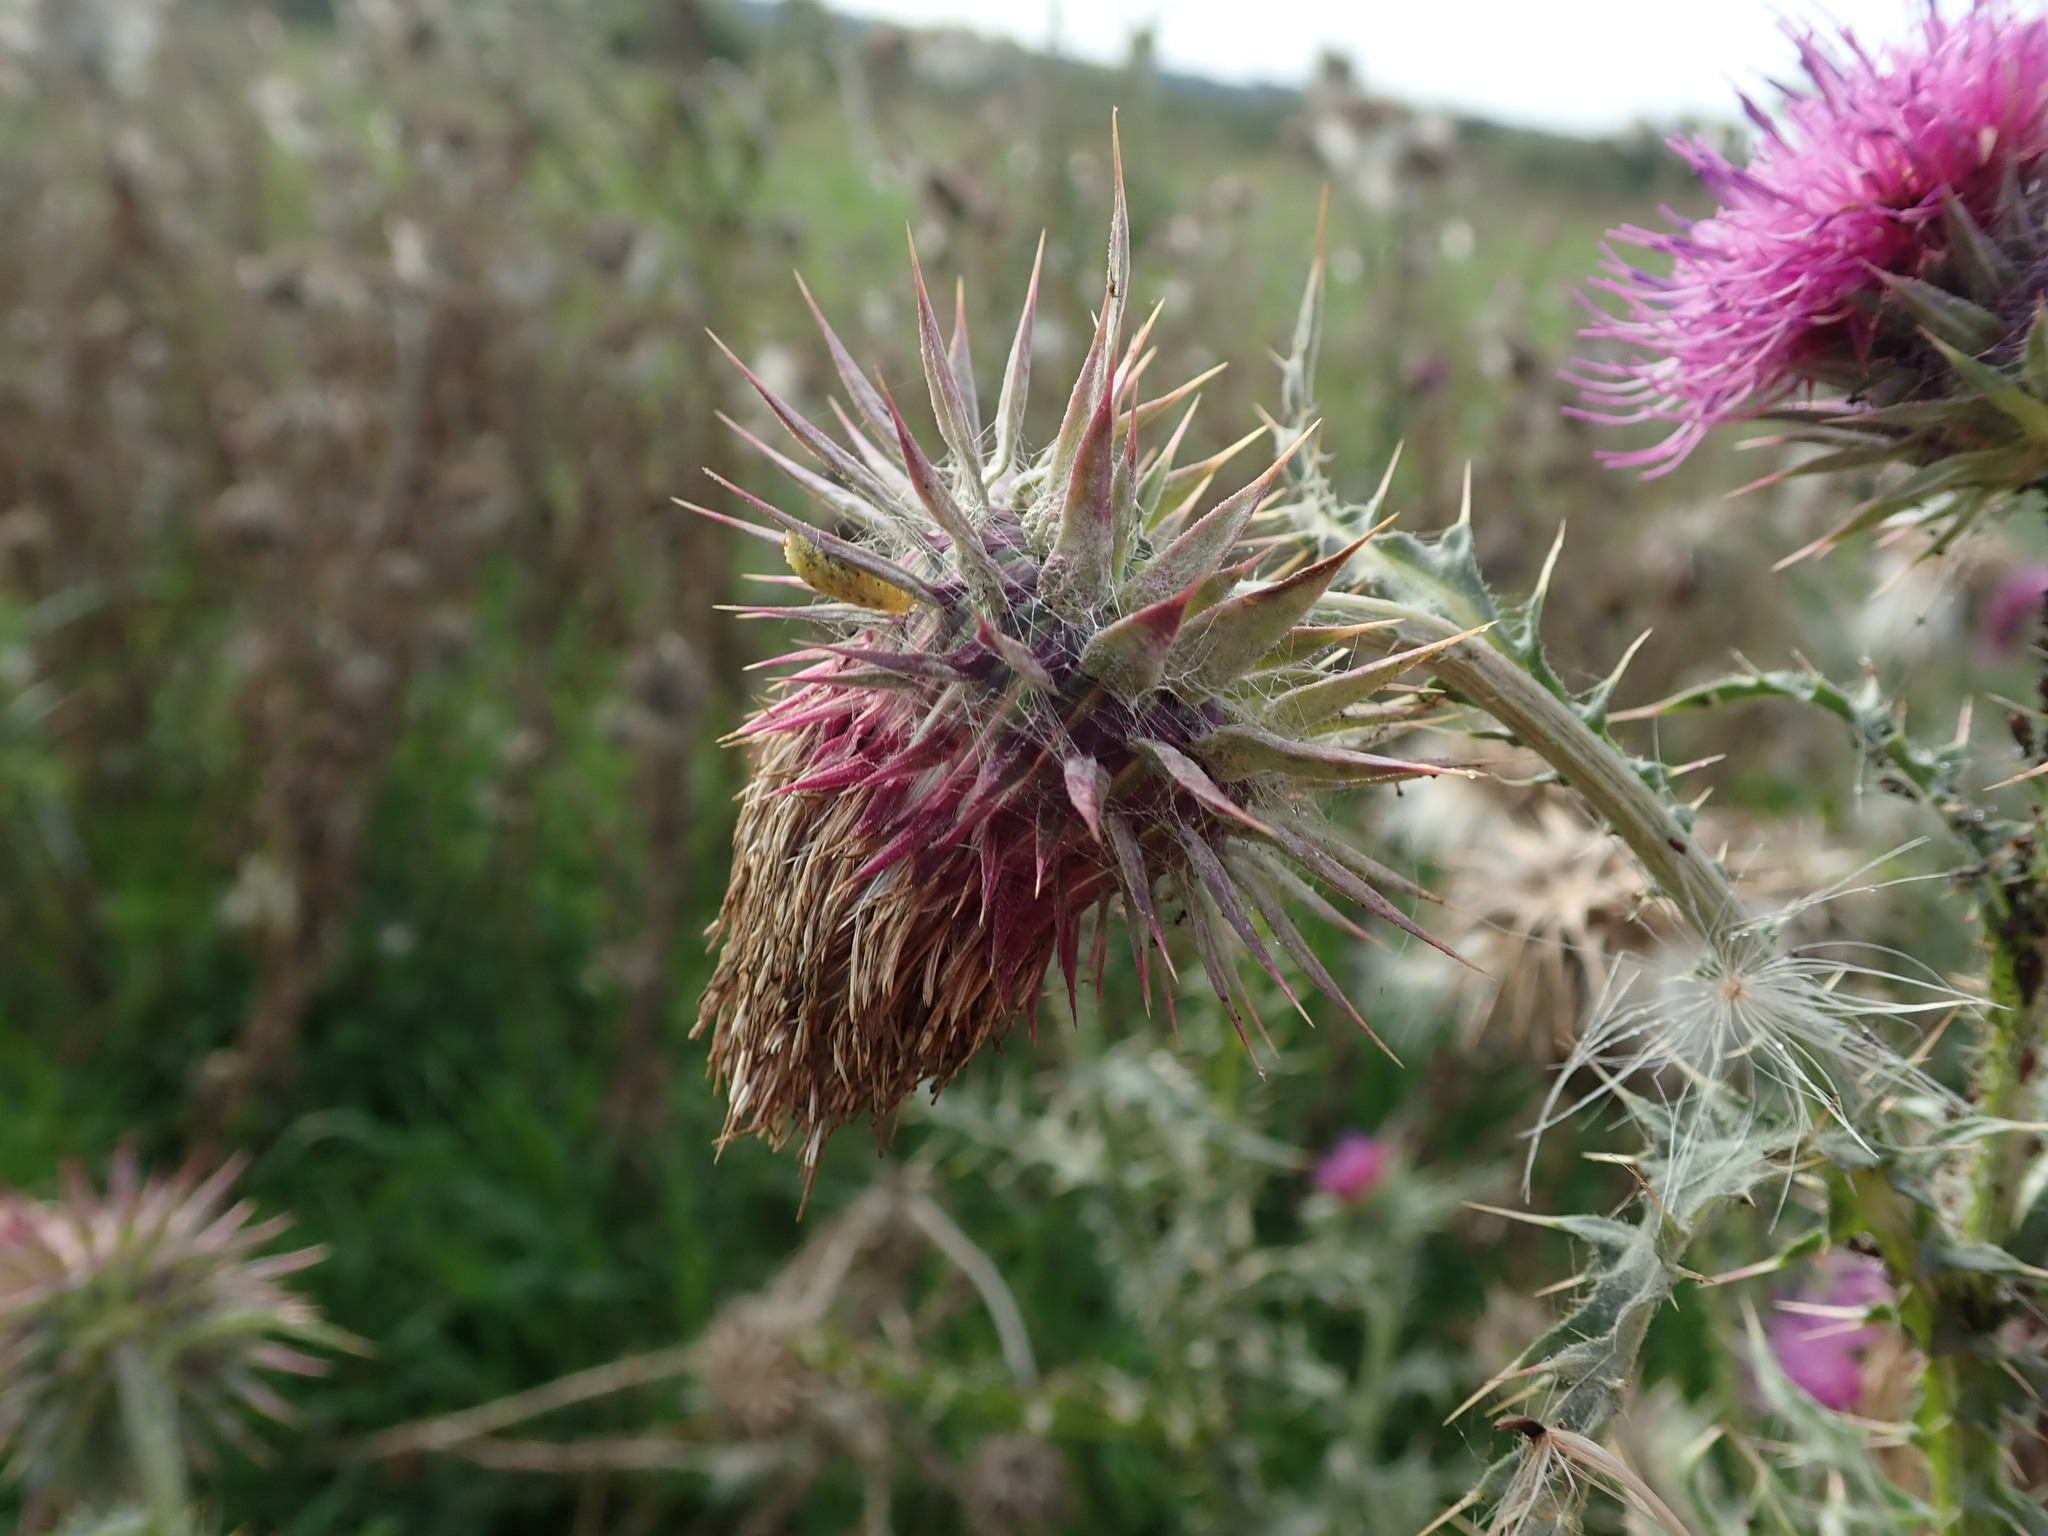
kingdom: Plantae
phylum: Tracheophyta
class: Magnoliopsida
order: Asterales
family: Asteraceae
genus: Carduus
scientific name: Carduus nutans
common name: Musk thistle
